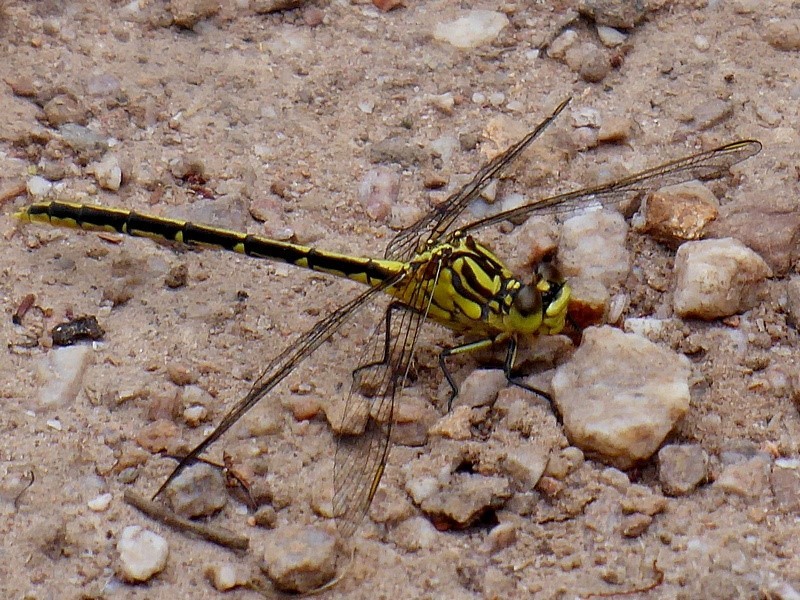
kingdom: Animalia
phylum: Arthropoda
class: Insecta
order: Odonata
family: Gomphidae
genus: Austrogomphus
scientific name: Austrogomphus guerini
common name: Yellow-striped hunter
